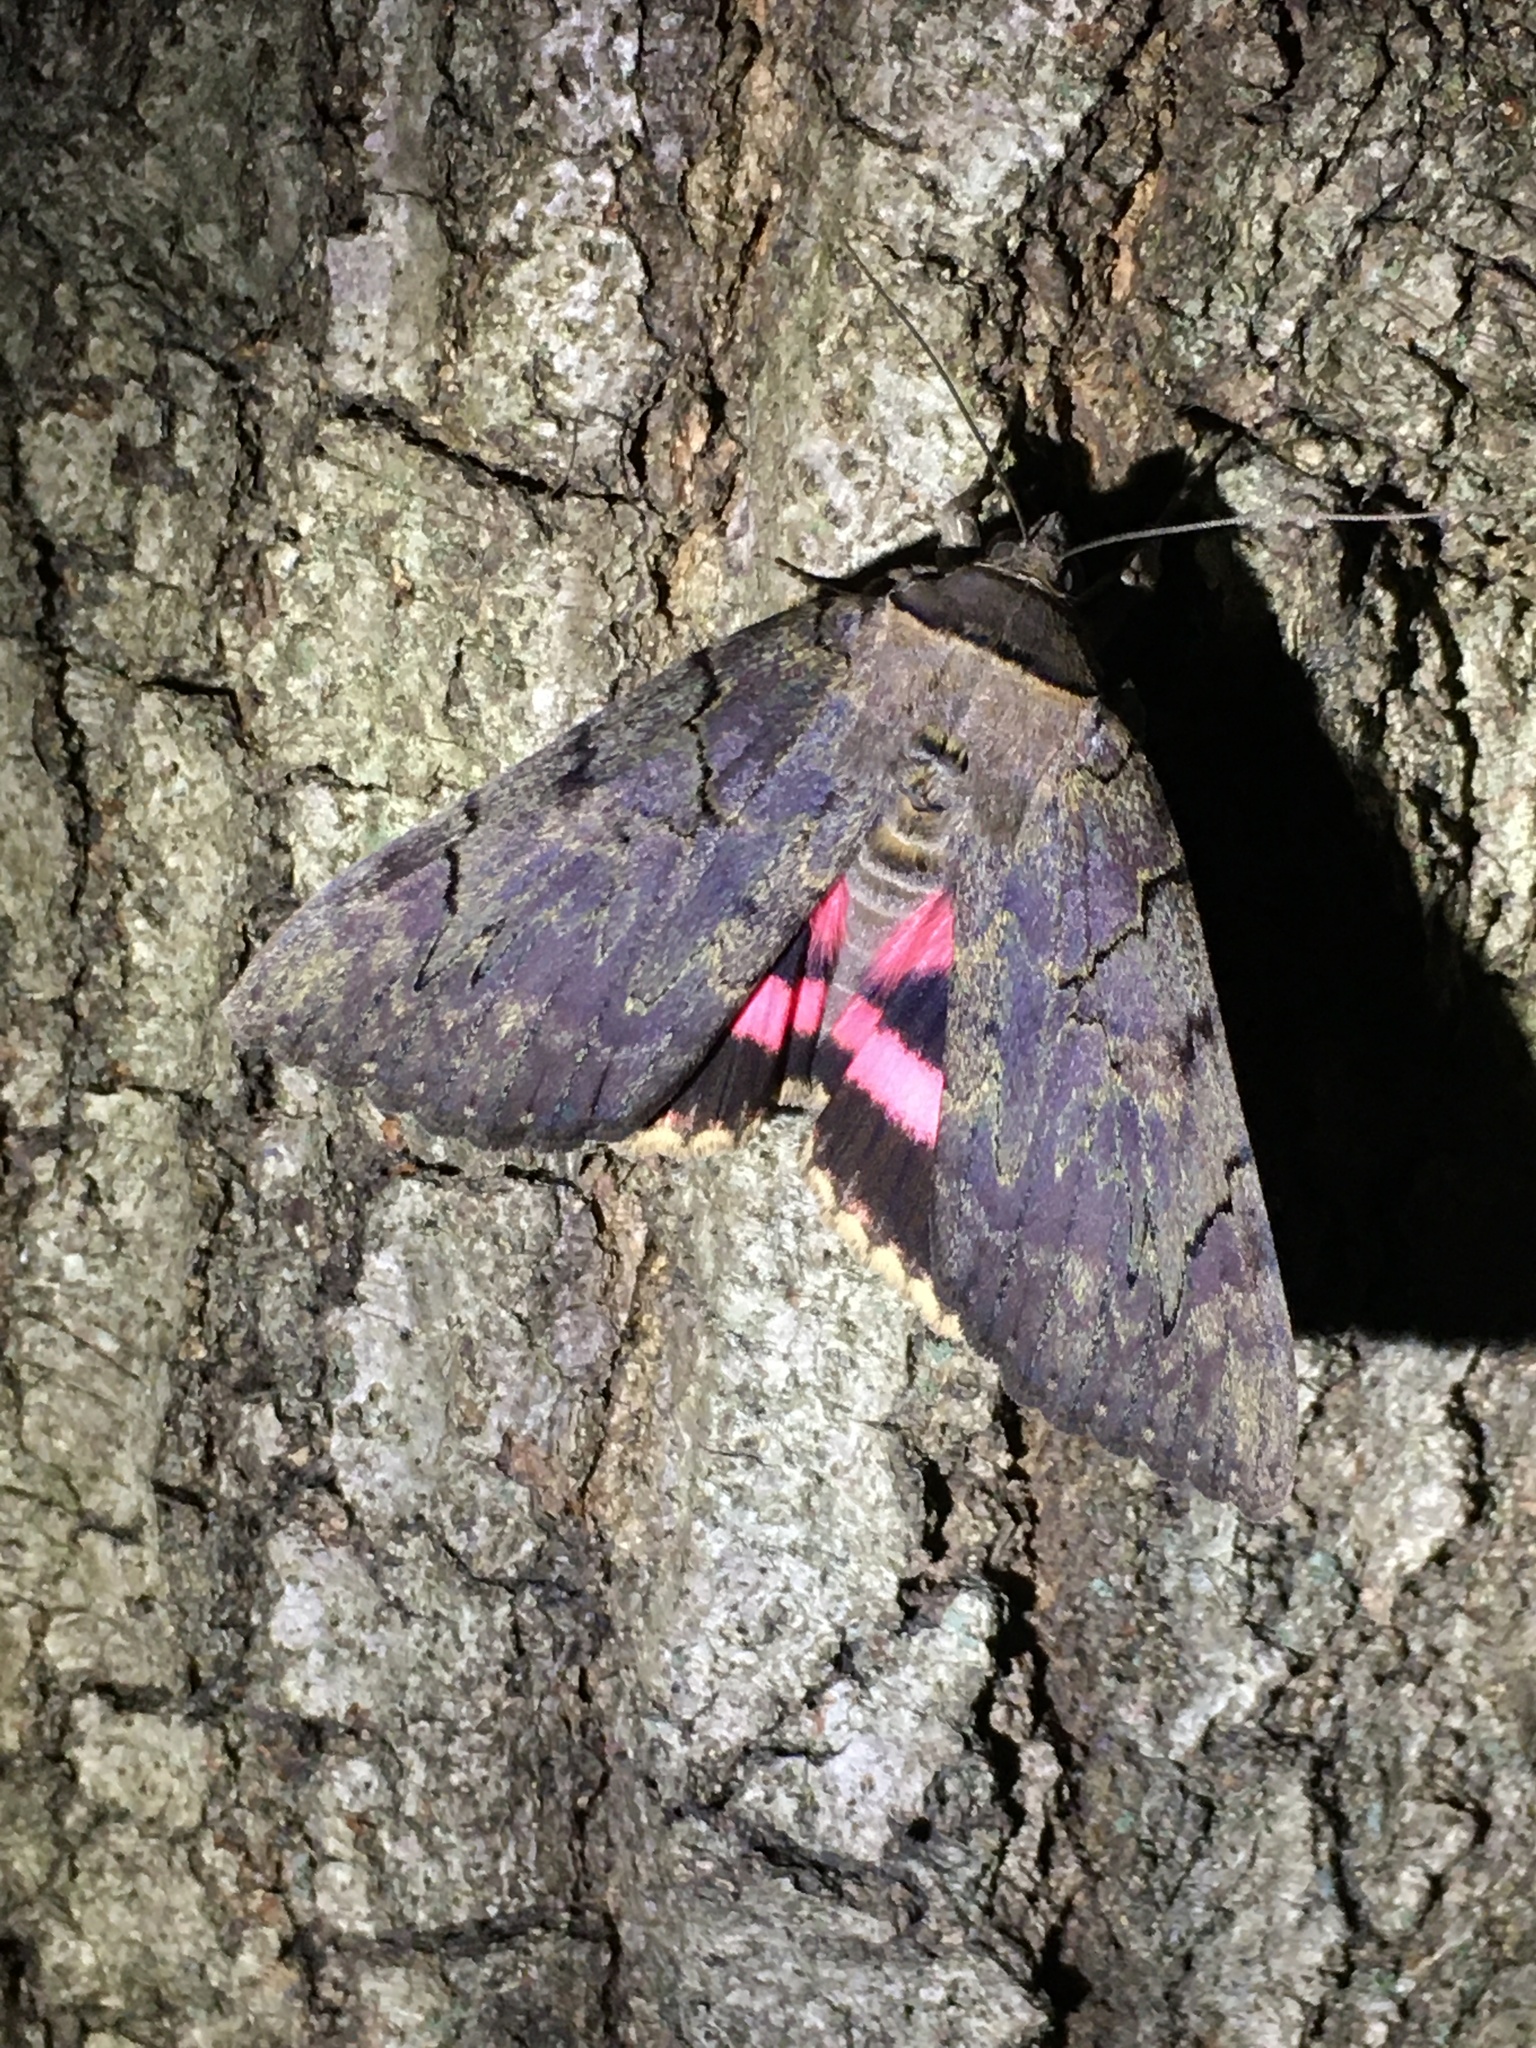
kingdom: Animalia
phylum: Arthropoda
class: Insecta
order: Lepidoptera
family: Erebidae
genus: Catocala
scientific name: Catocala cara
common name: Darling underwing
